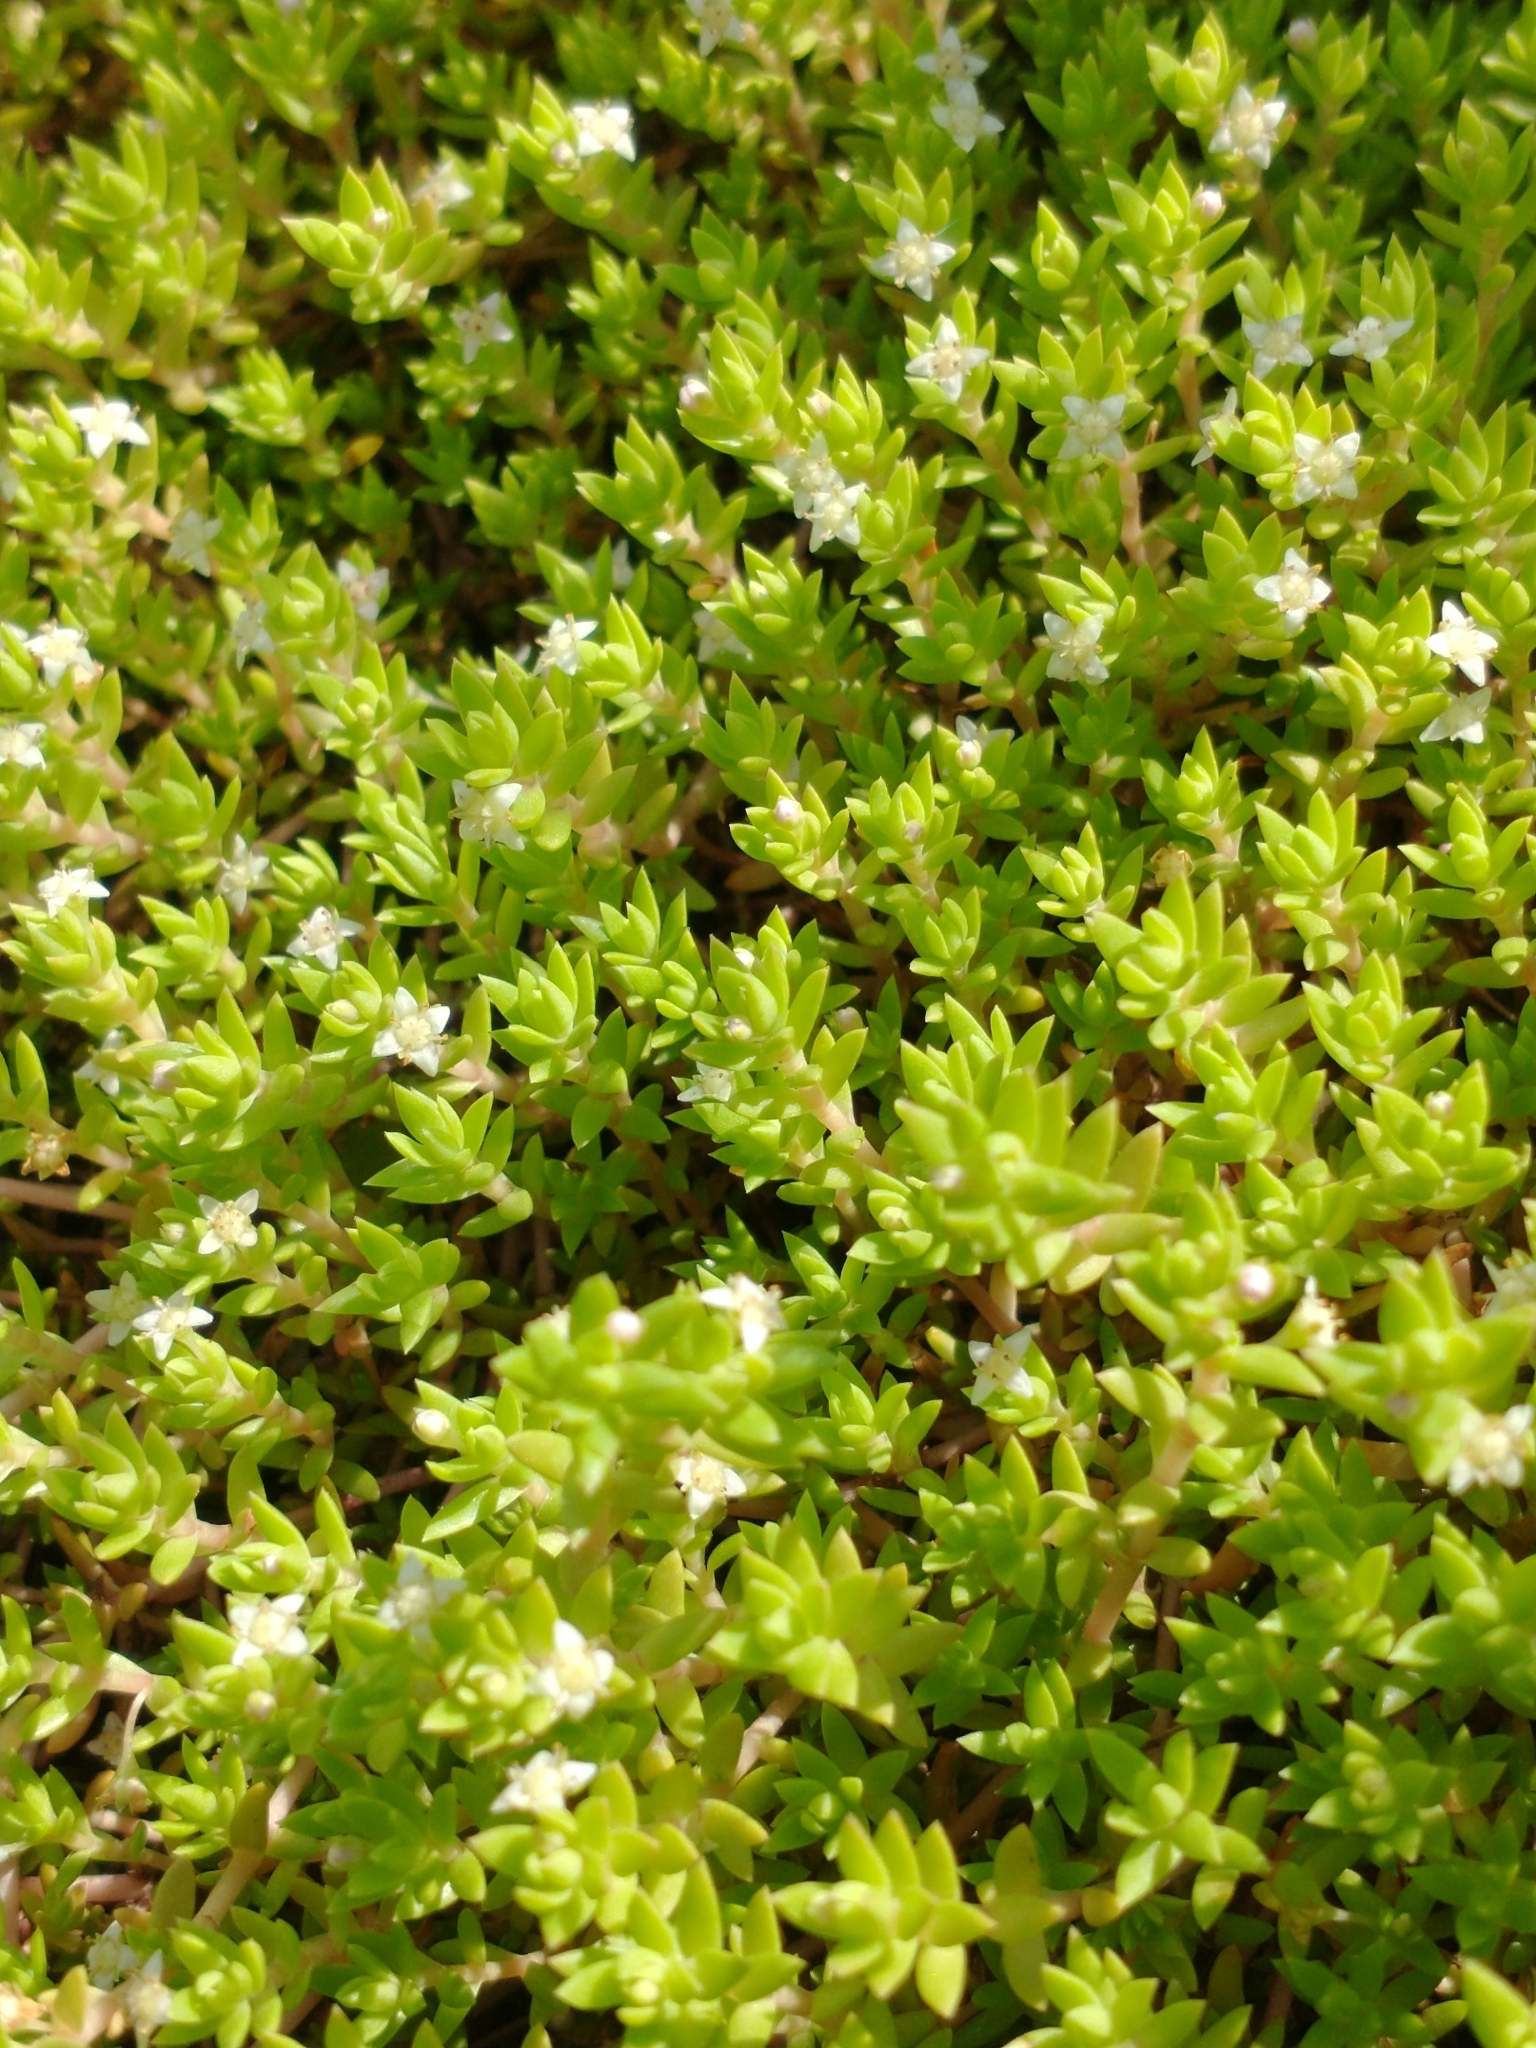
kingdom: Plantae
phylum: Tracheophyta
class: Magnoliopsida
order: Saxifragales
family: Crassulaceae
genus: Crassula
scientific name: Crassula helmsii
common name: New zealand pigmyweed
